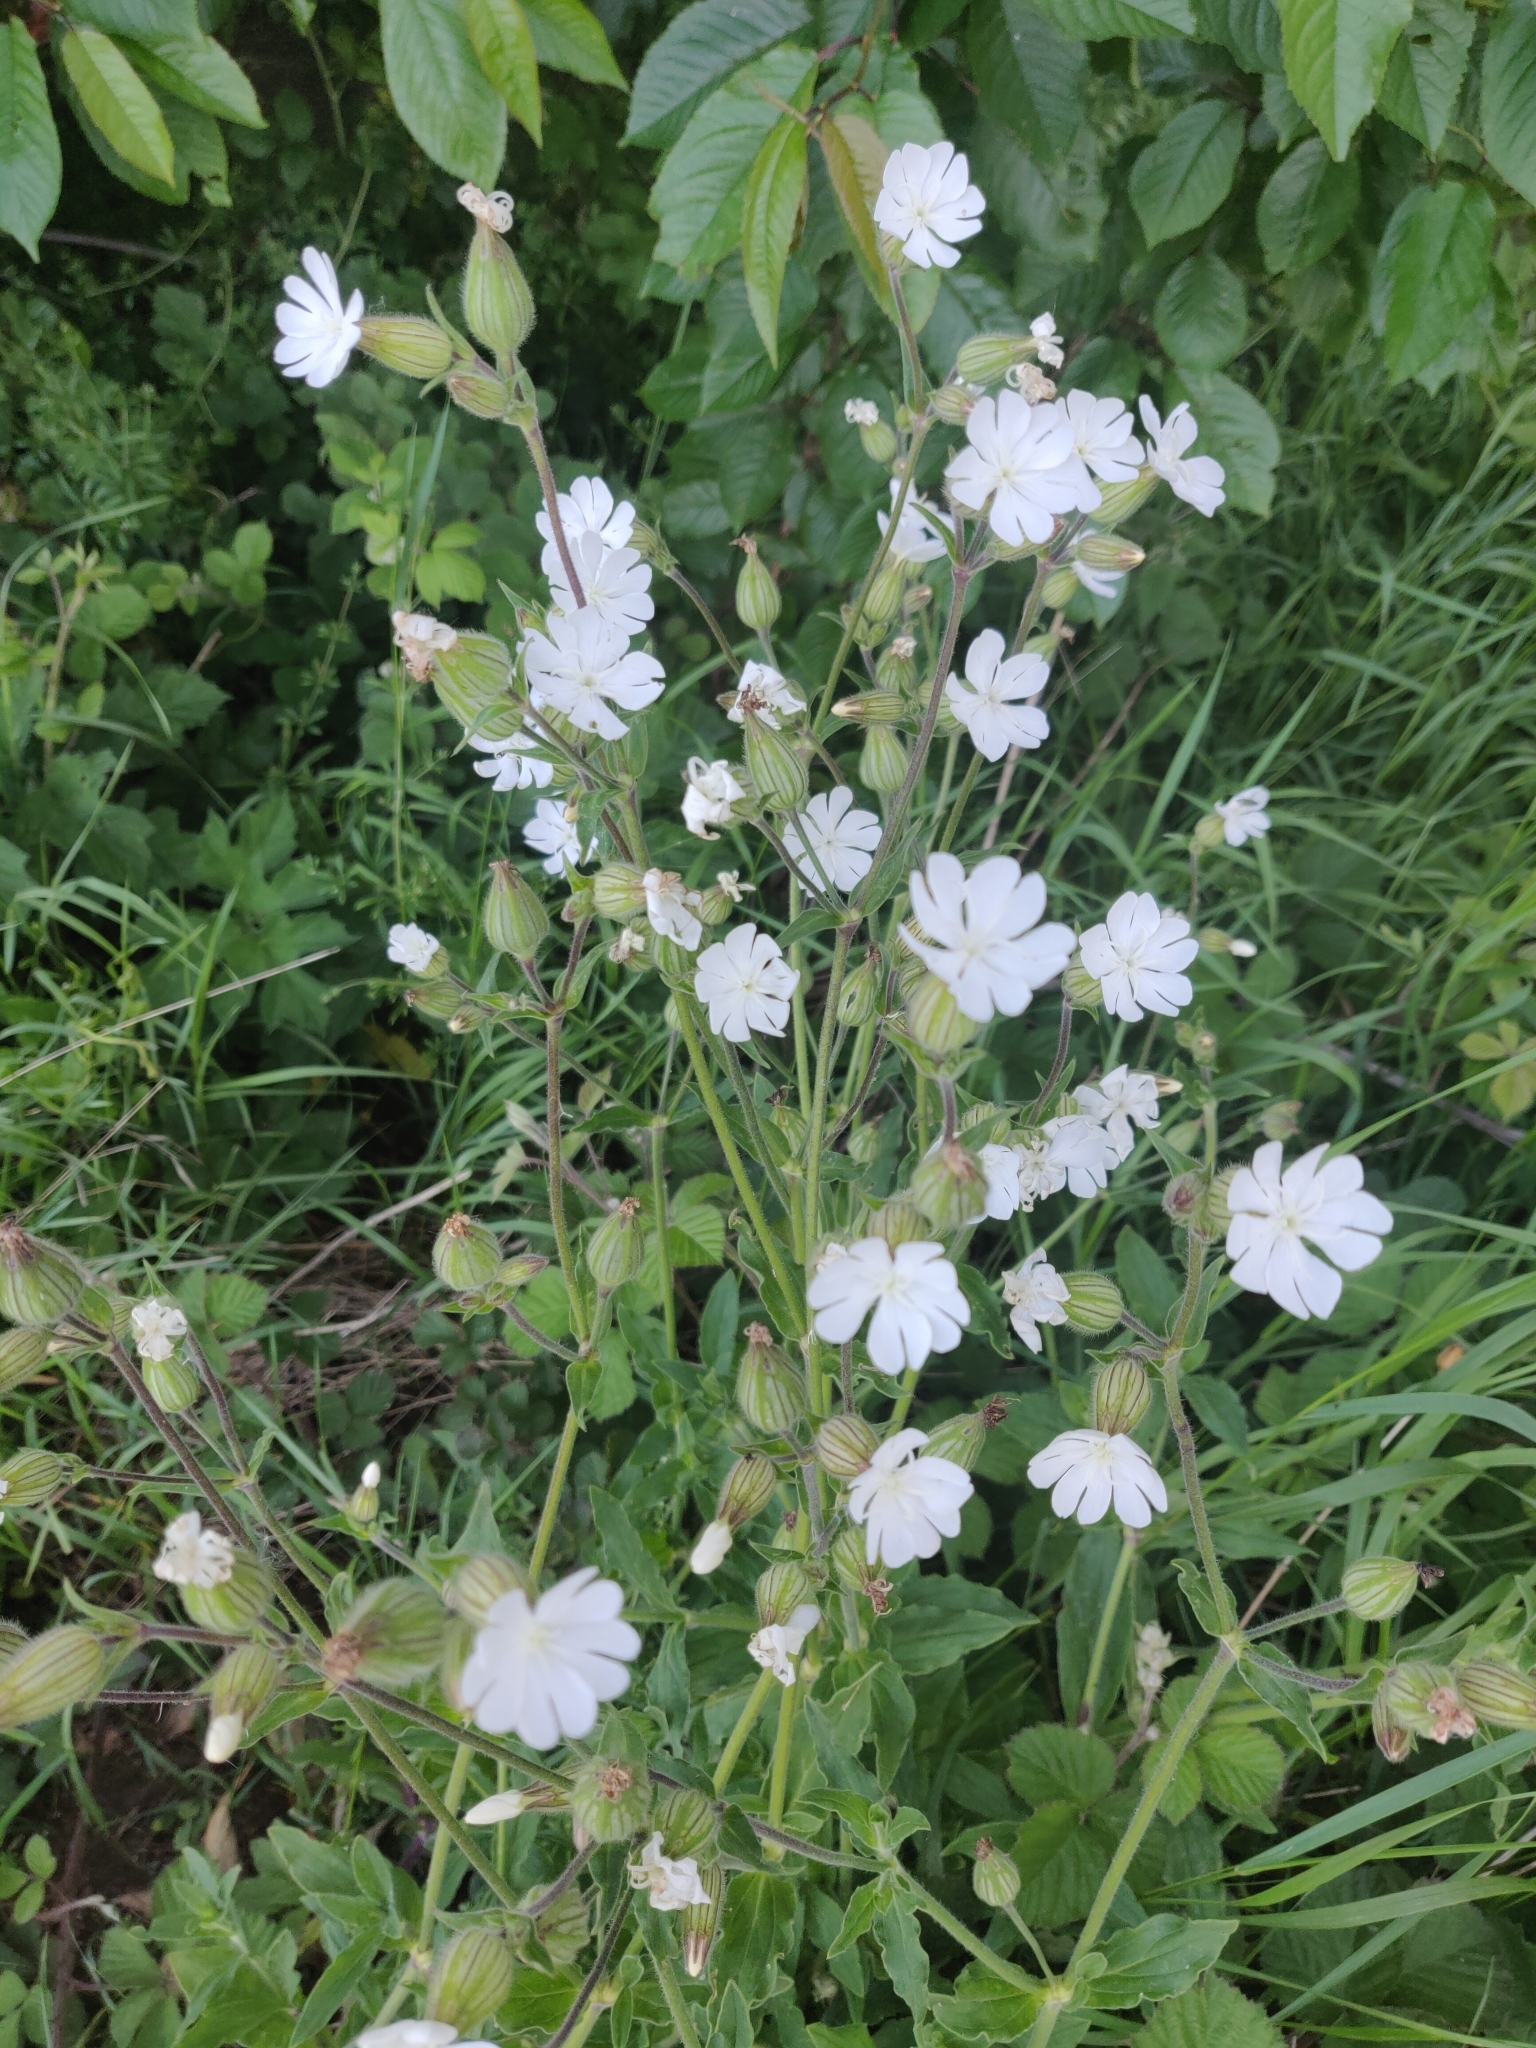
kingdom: Plantae
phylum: Tracheophyta
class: Magnoliopsida
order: Caryophyllales
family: Caryophyllaceae
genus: Silene
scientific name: Silene latifolia
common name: White campion
